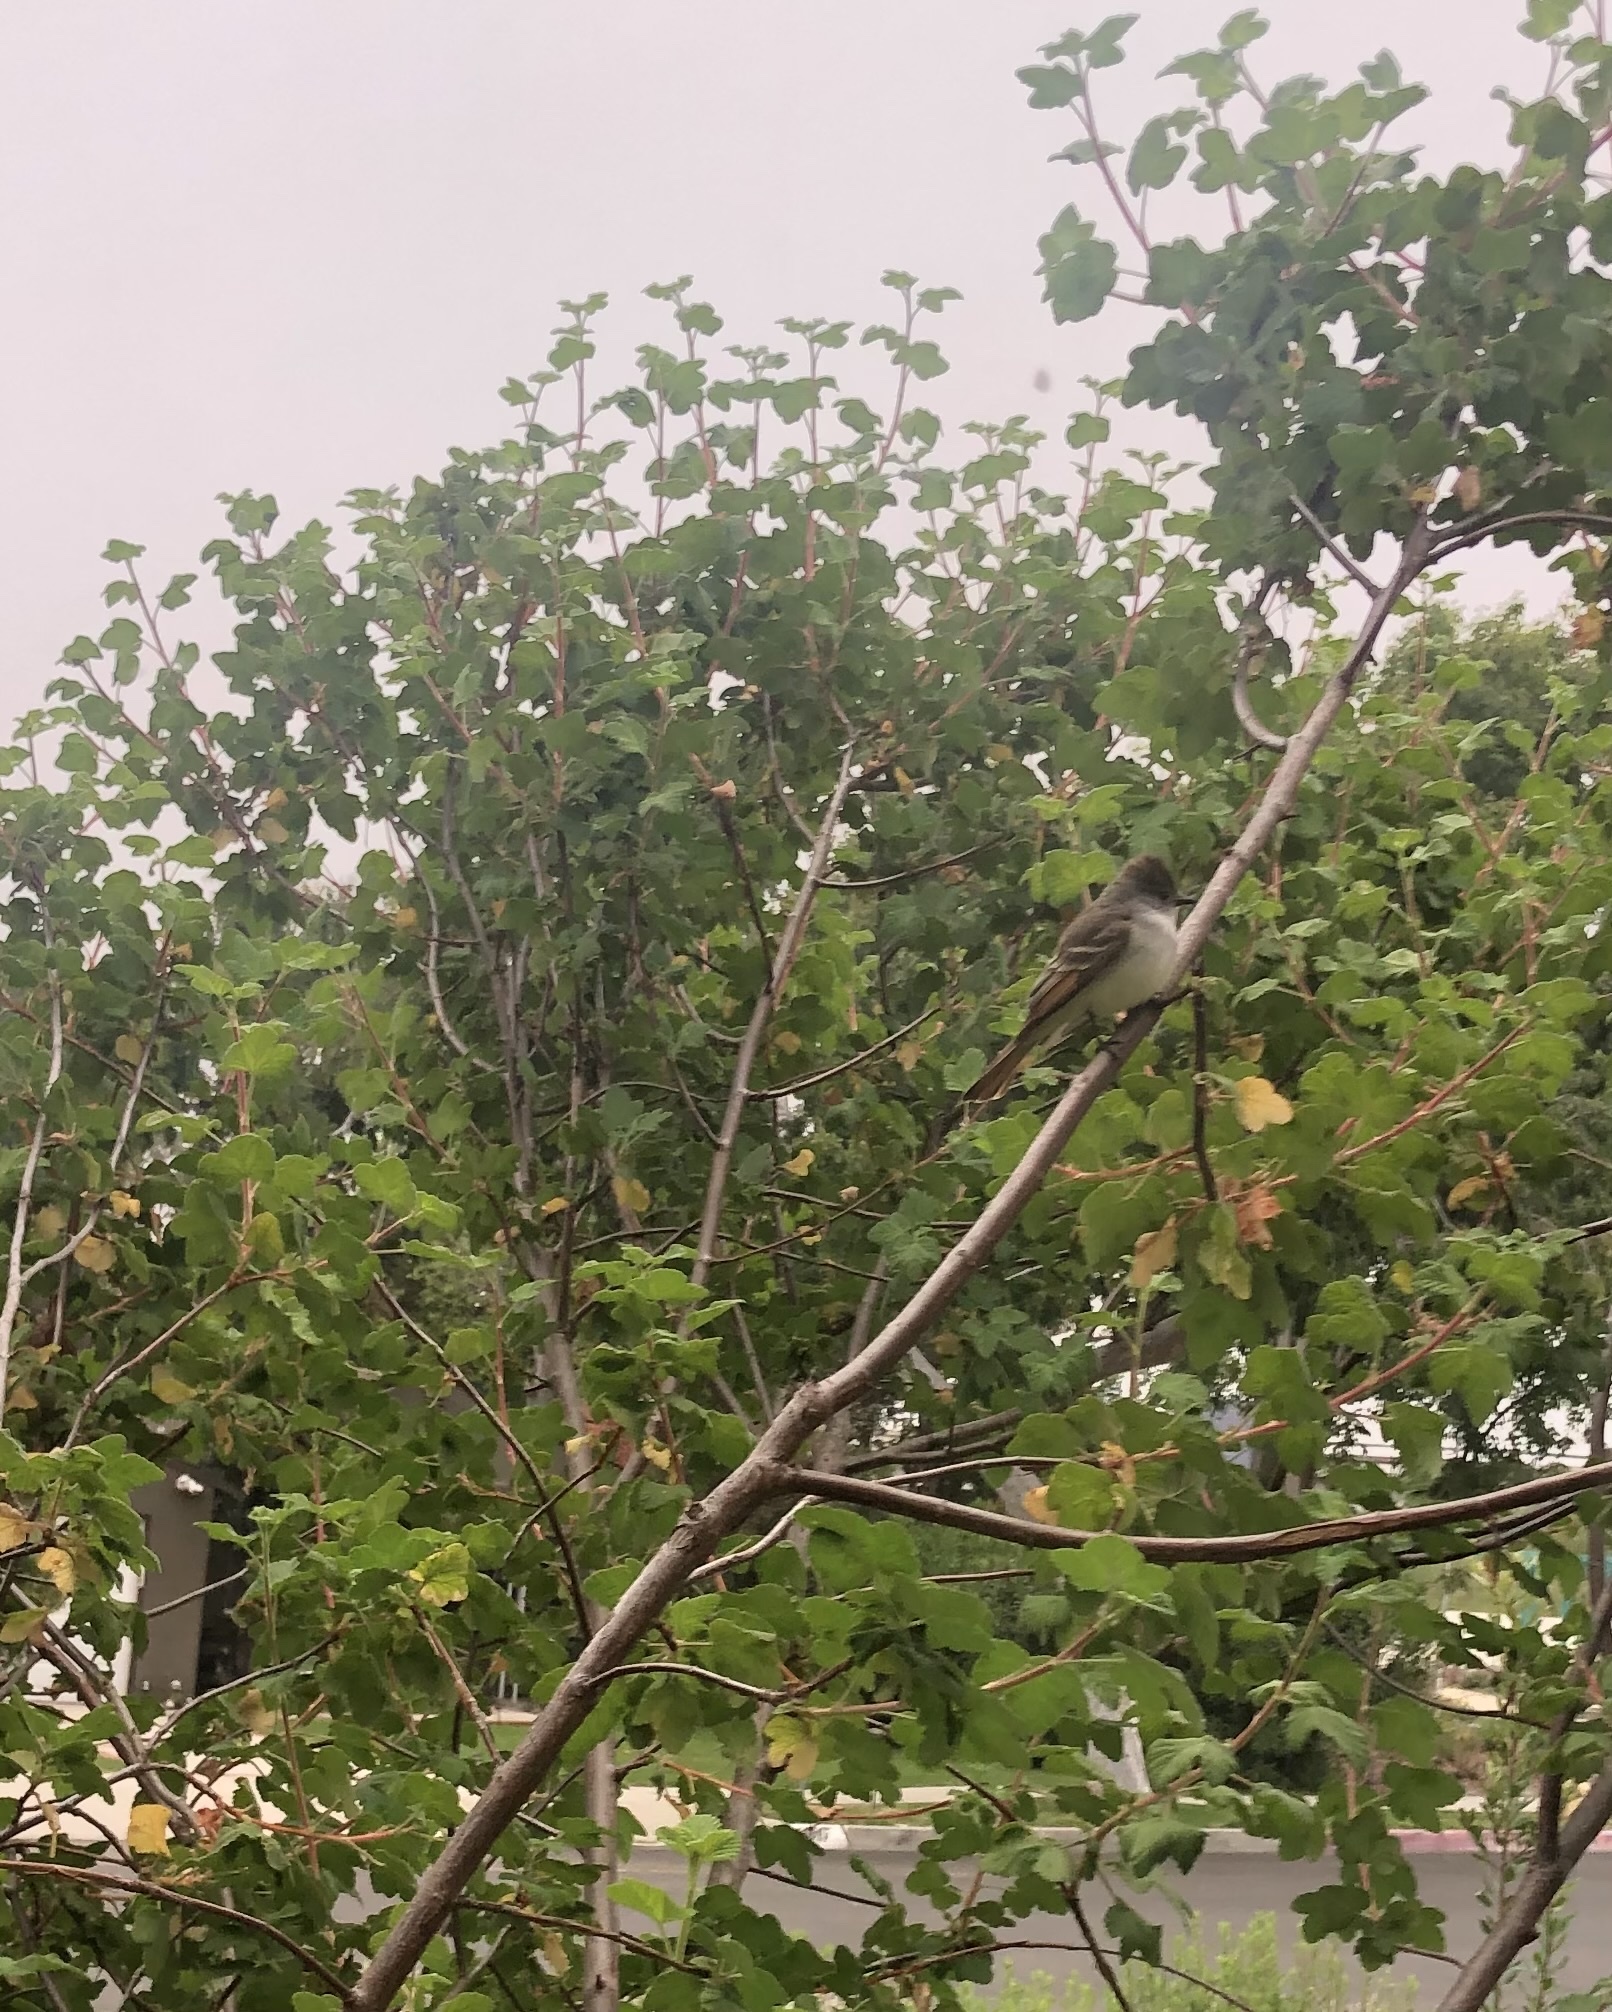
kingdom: Animalia
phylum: Chordata
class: Aves
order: Passeriformes
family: Tyrannidae
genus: Myiarchus
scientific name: Myiarchus cinerascens
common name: Ash-throated flycatcher
